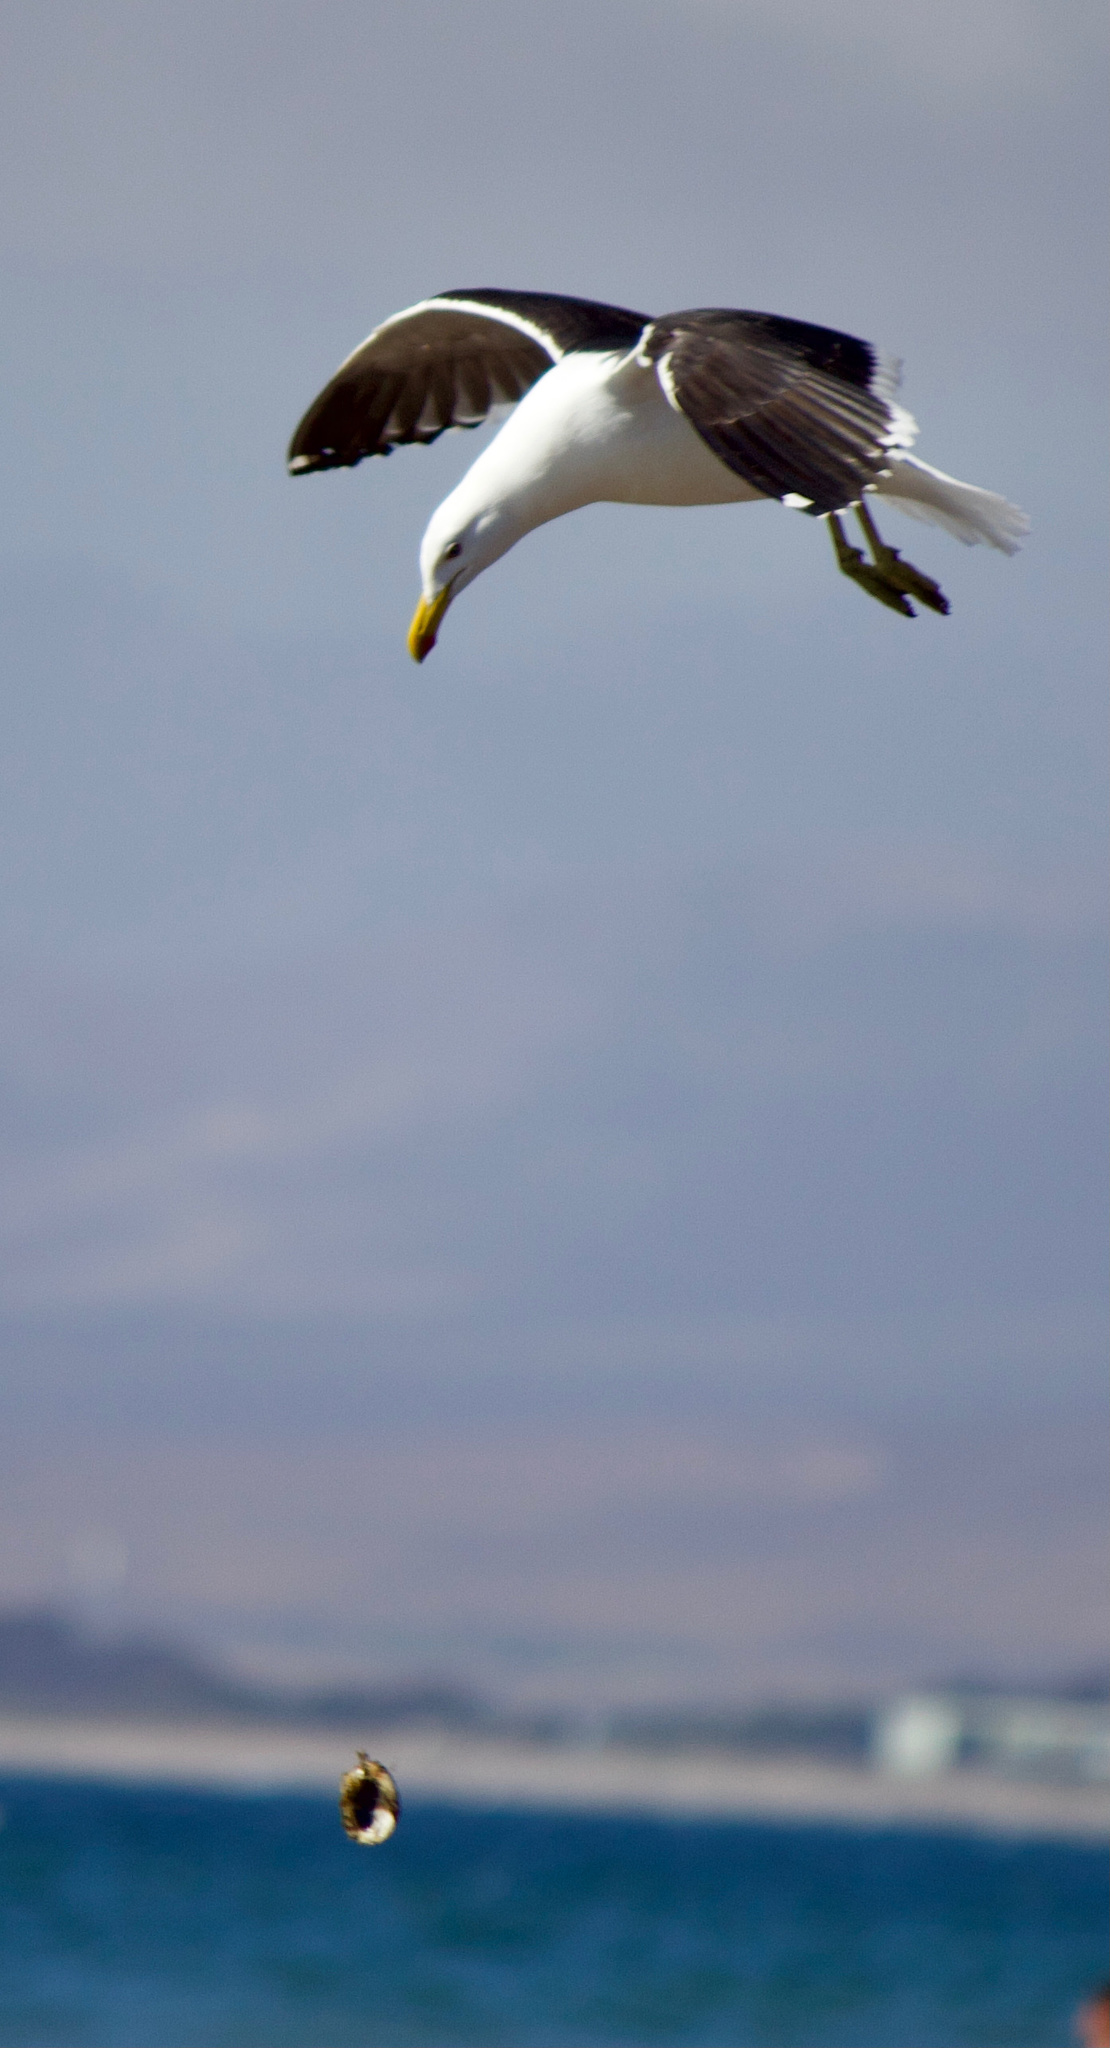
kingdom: Animalia
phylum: Chordata
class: Aves
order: Charadriiformes
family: Laridae
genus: Larus
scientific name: Larus dominicanus
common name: Kelp gull
